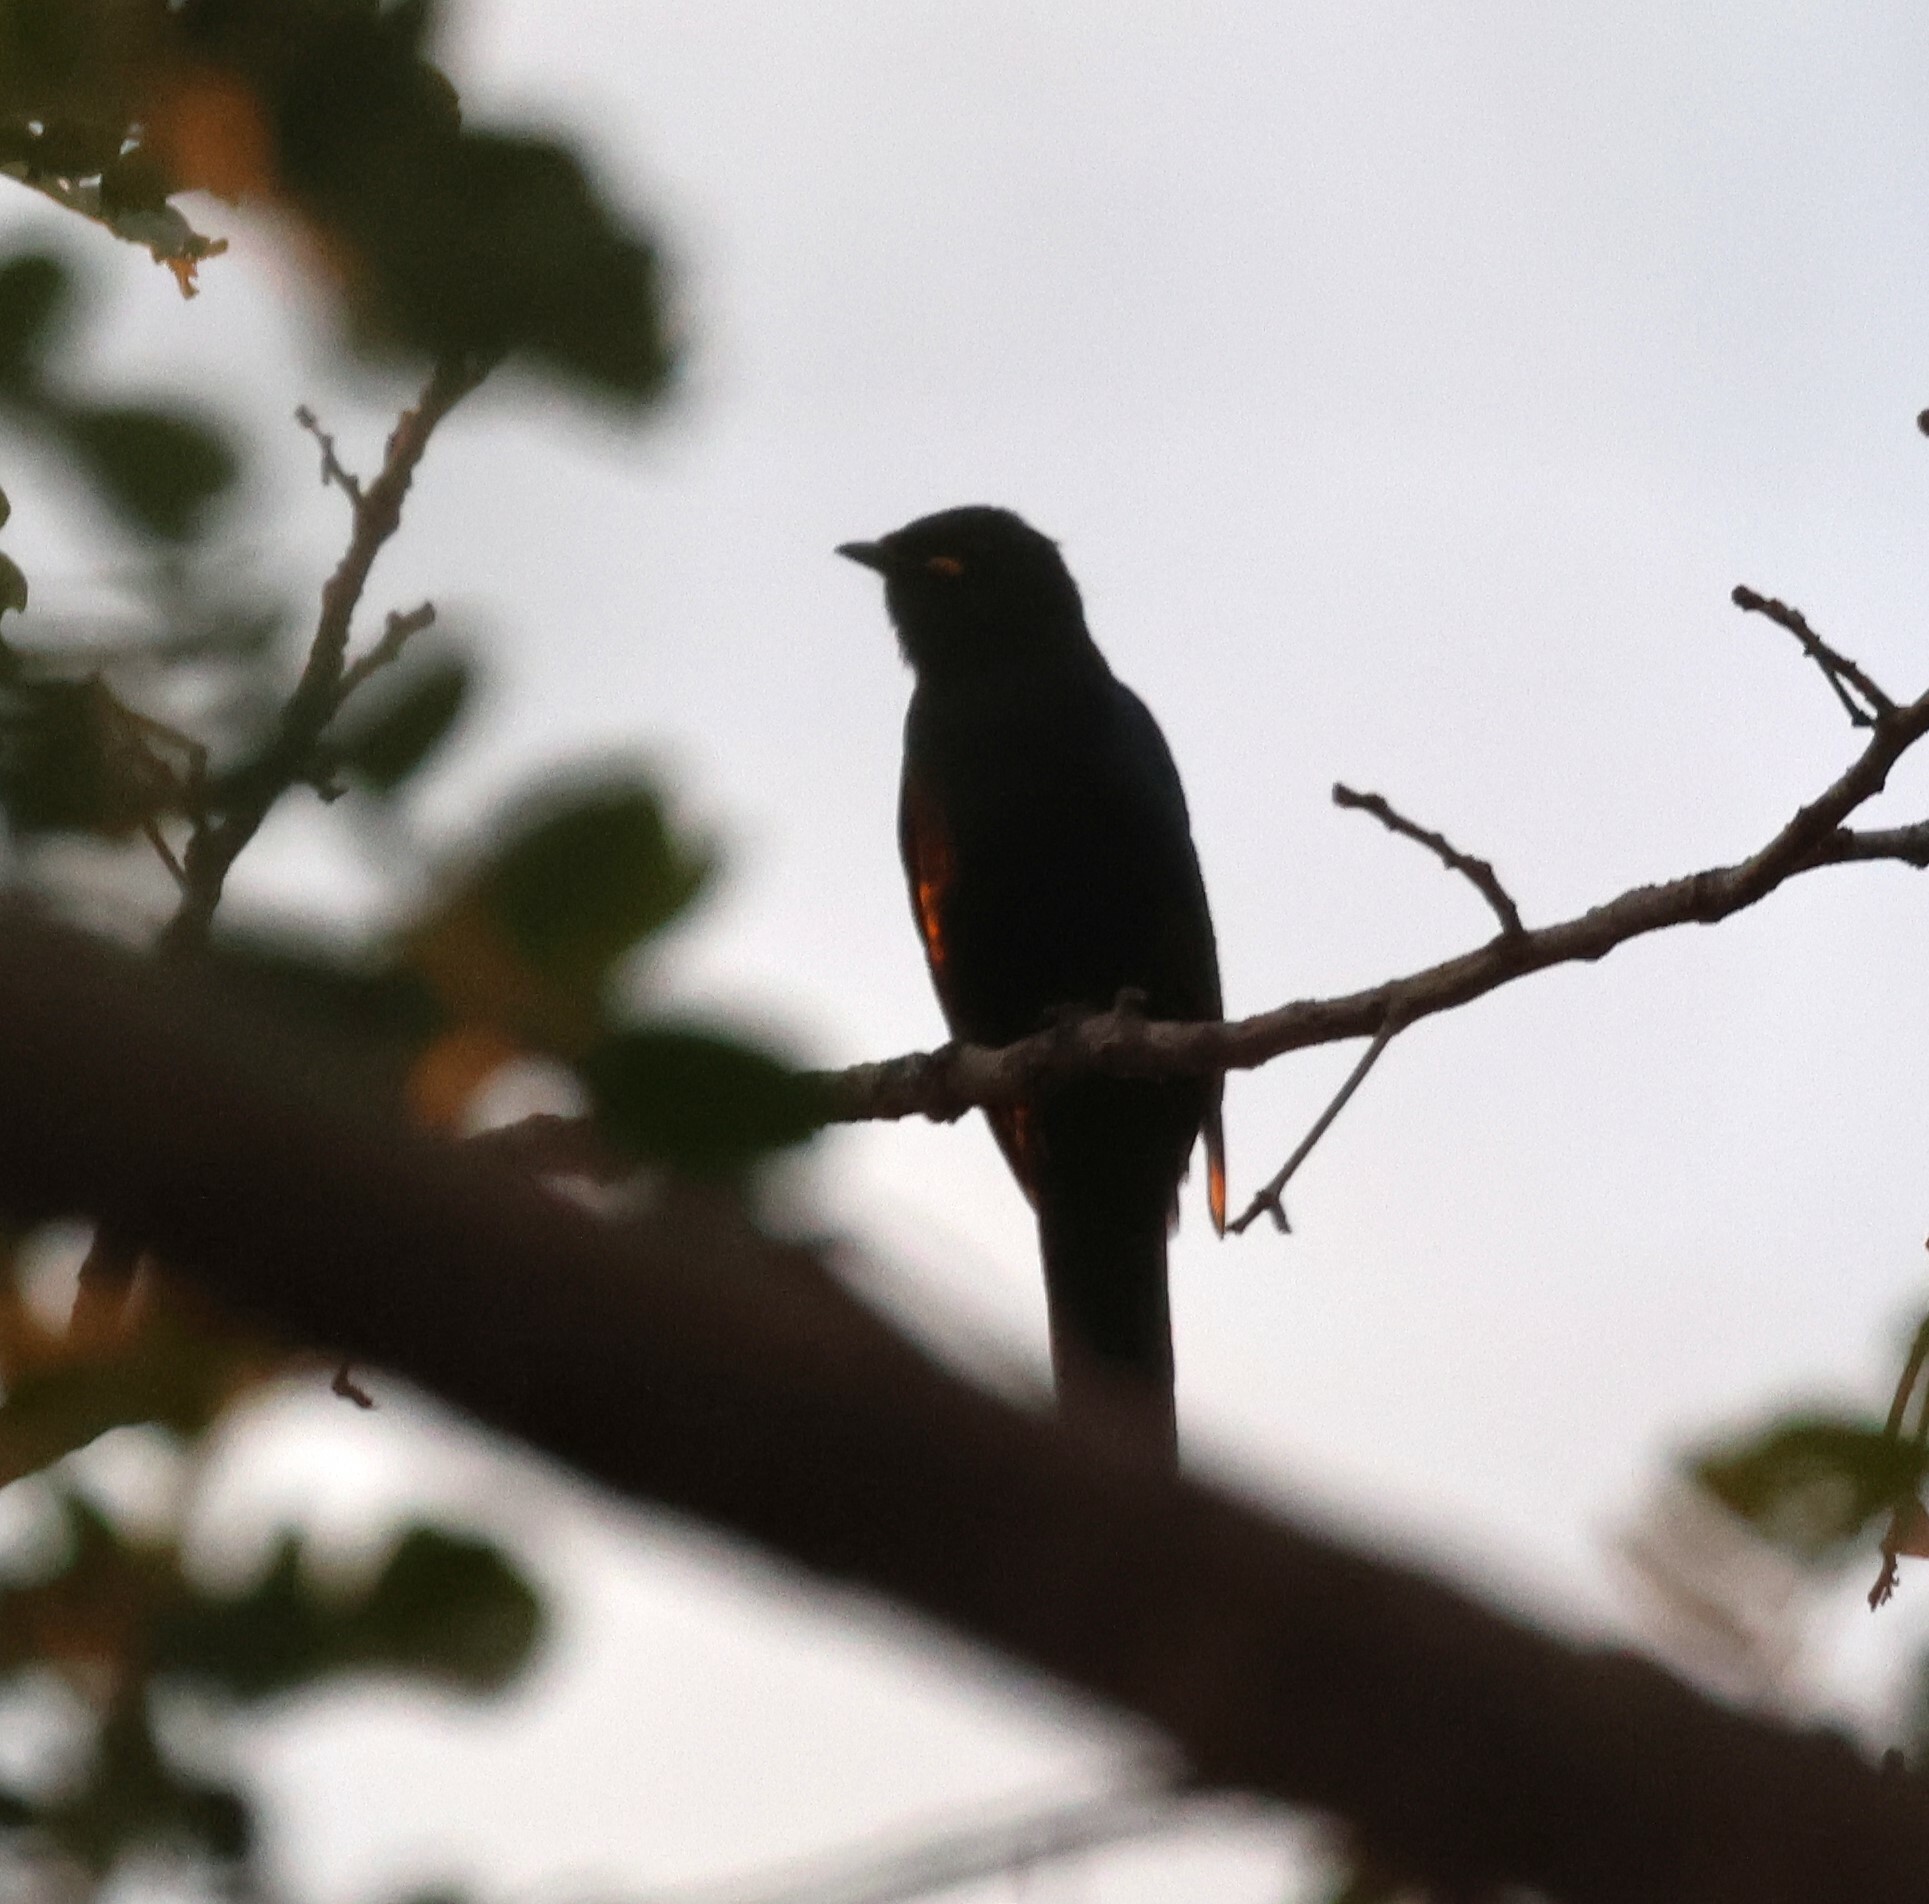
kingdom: Animalia
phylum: Chordata
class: Aves
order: Passeriformes
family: Campephagidae
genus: Campephaga
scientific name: Campephaga flava
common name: Black cuckooshrike
